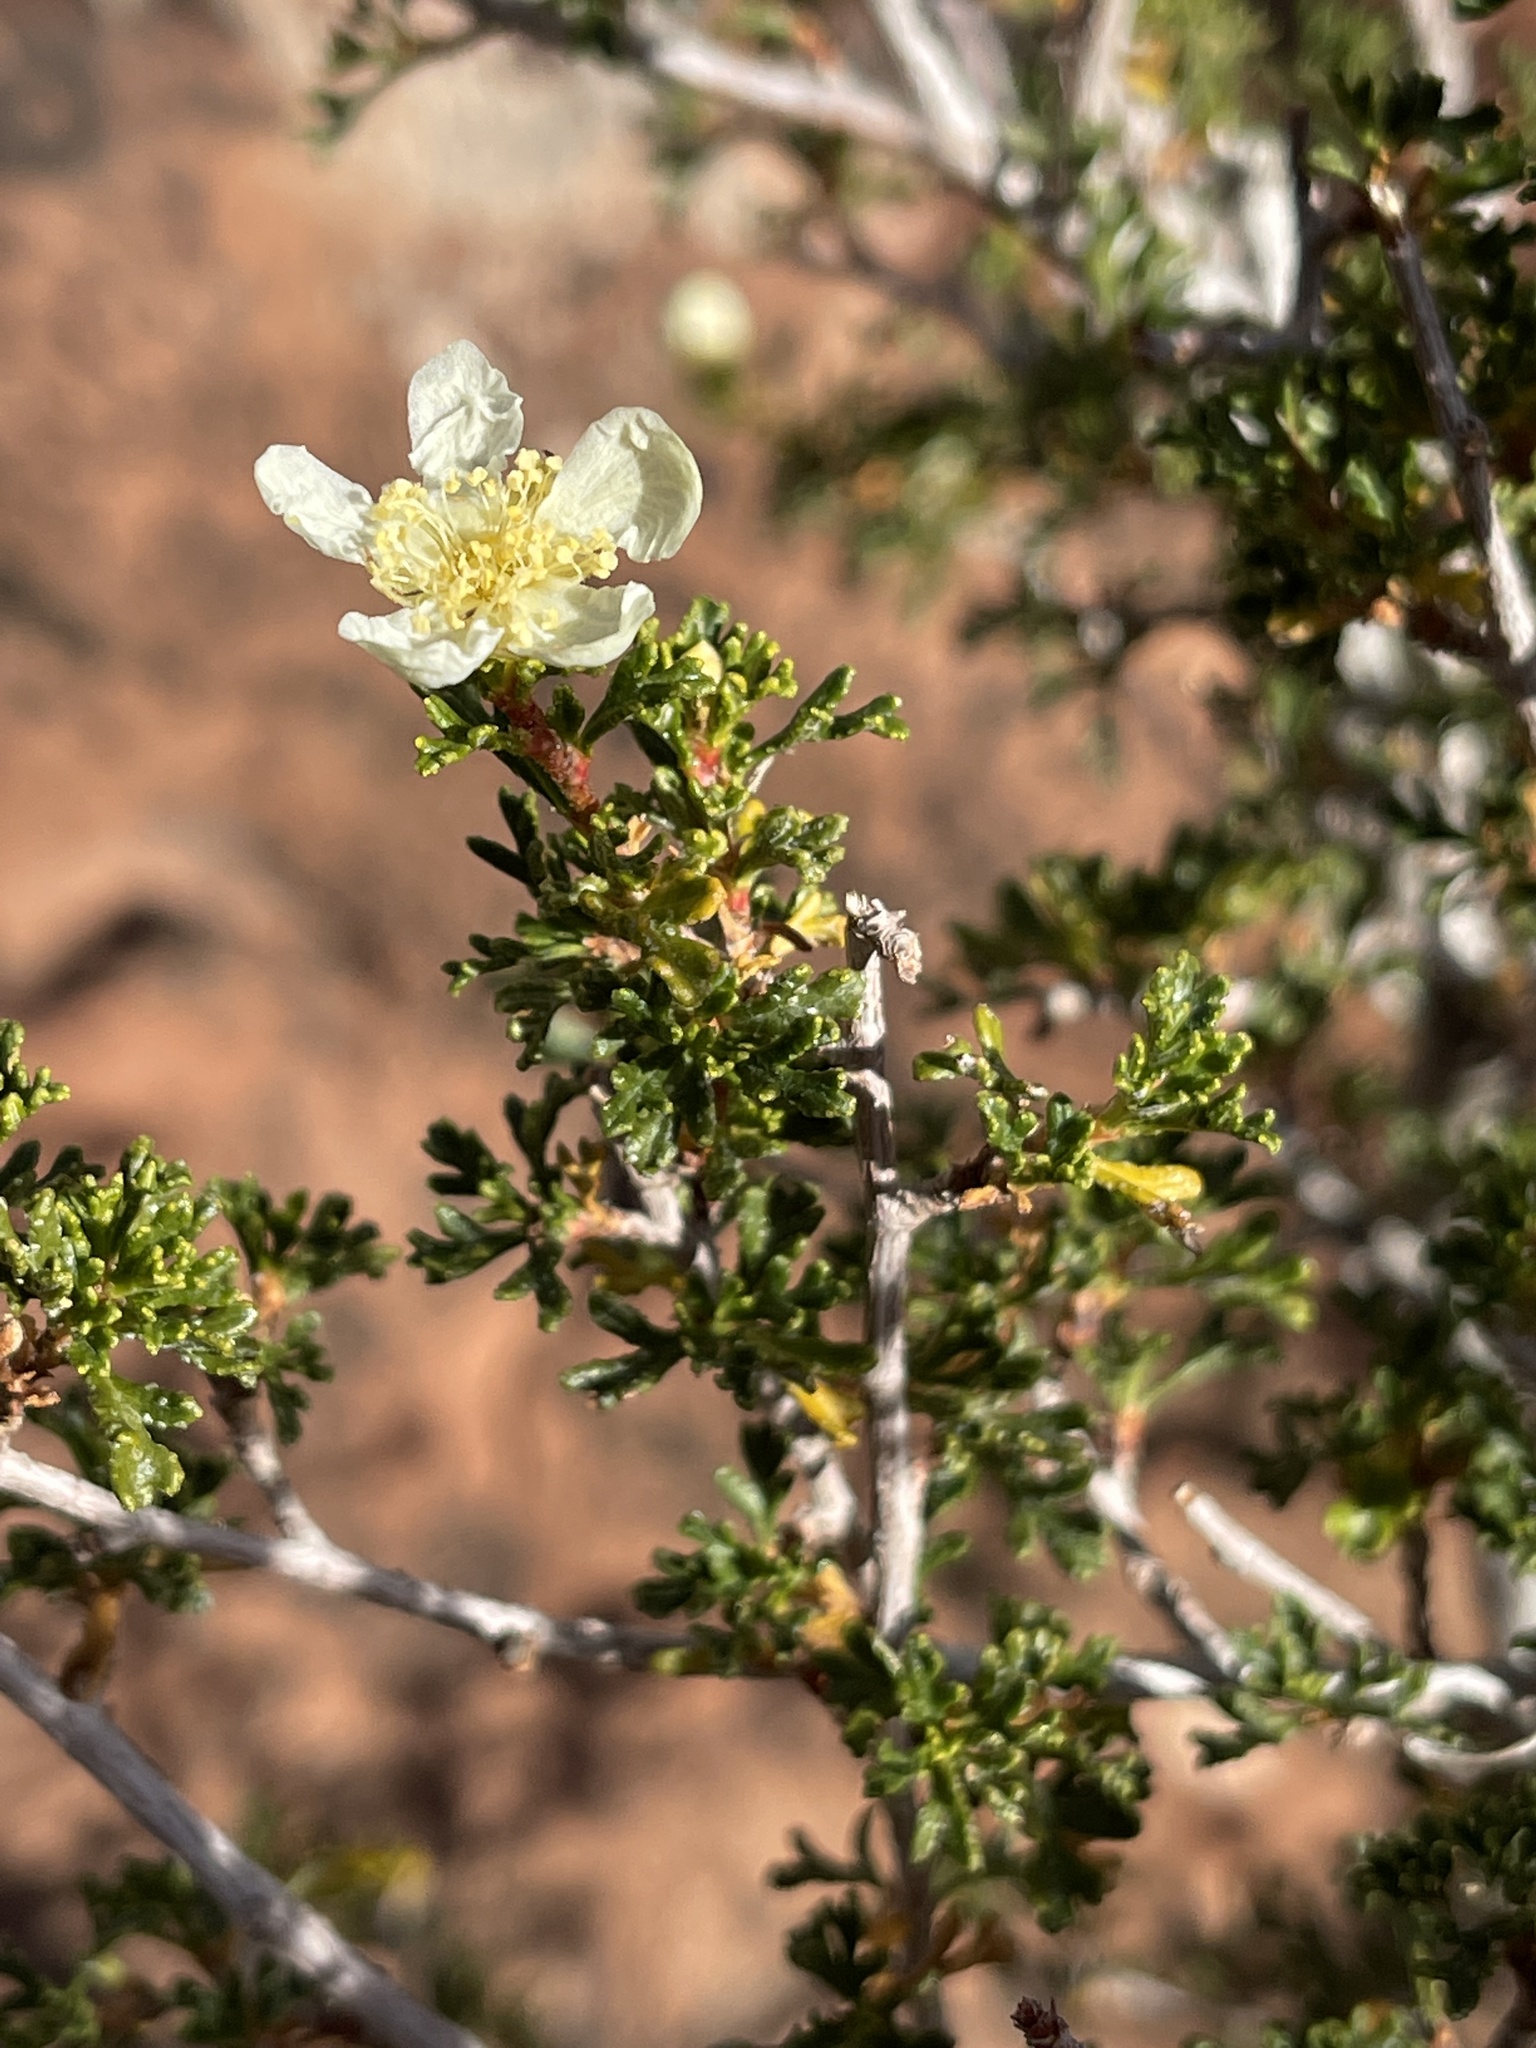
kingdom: Plantae
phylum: Tracheophyta
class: Magnoliopsida
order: Rosales
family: Rosaceae
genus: Purshia
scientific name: Purshia stansburiana
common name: Stansbury's cliffrose
